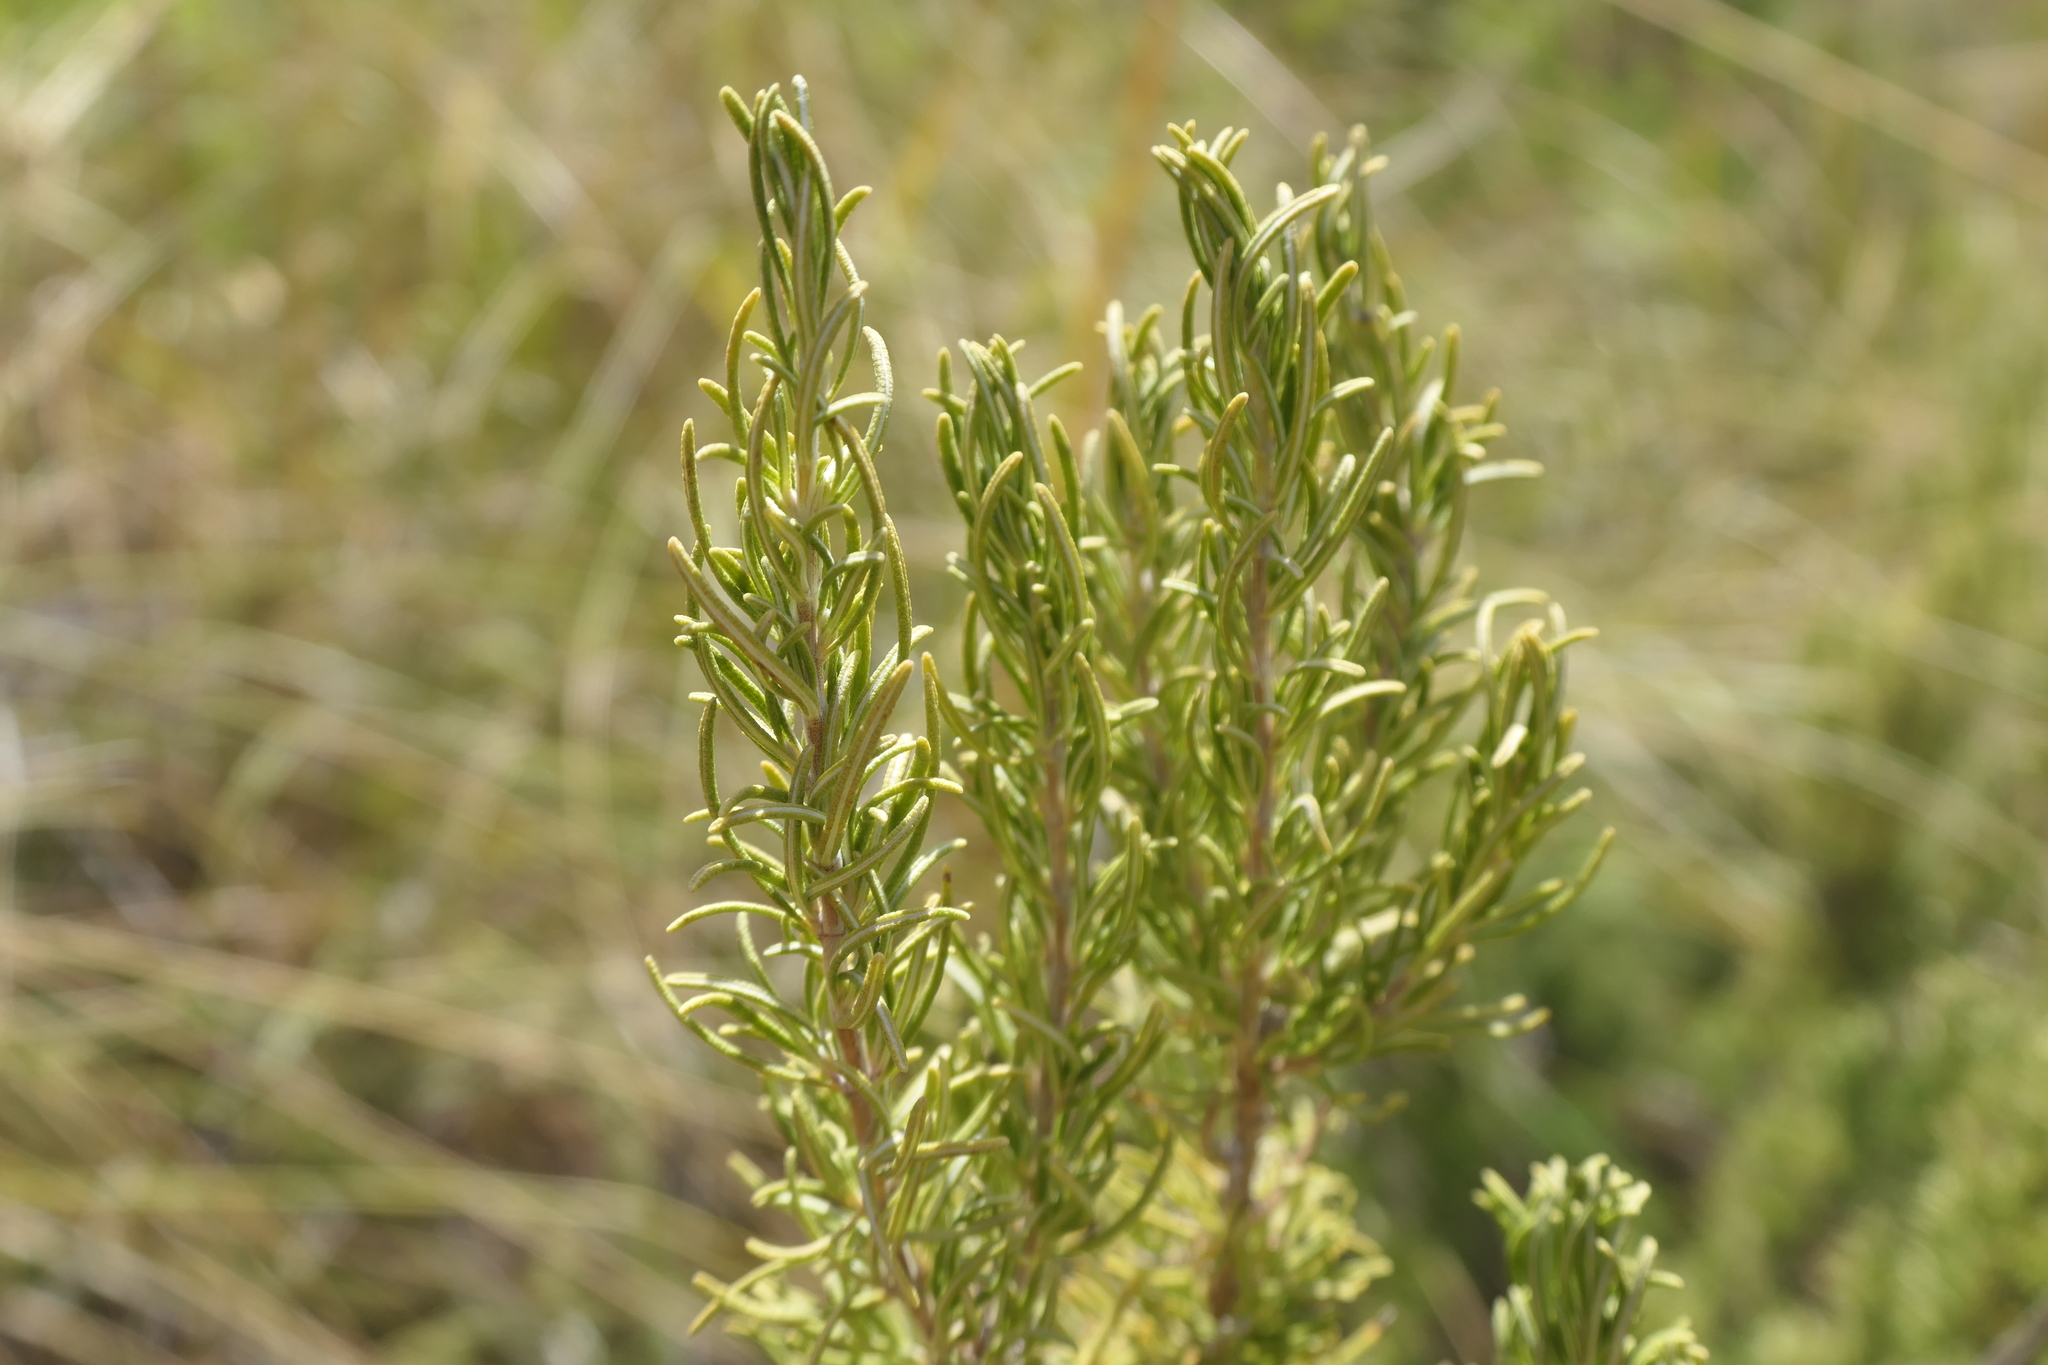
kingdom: Plantae
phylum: Tracheophyta
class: Magnoliopsida
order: Lamiales
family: Lamiaceae
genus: Salvia
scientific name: Salvia rosmarinus
